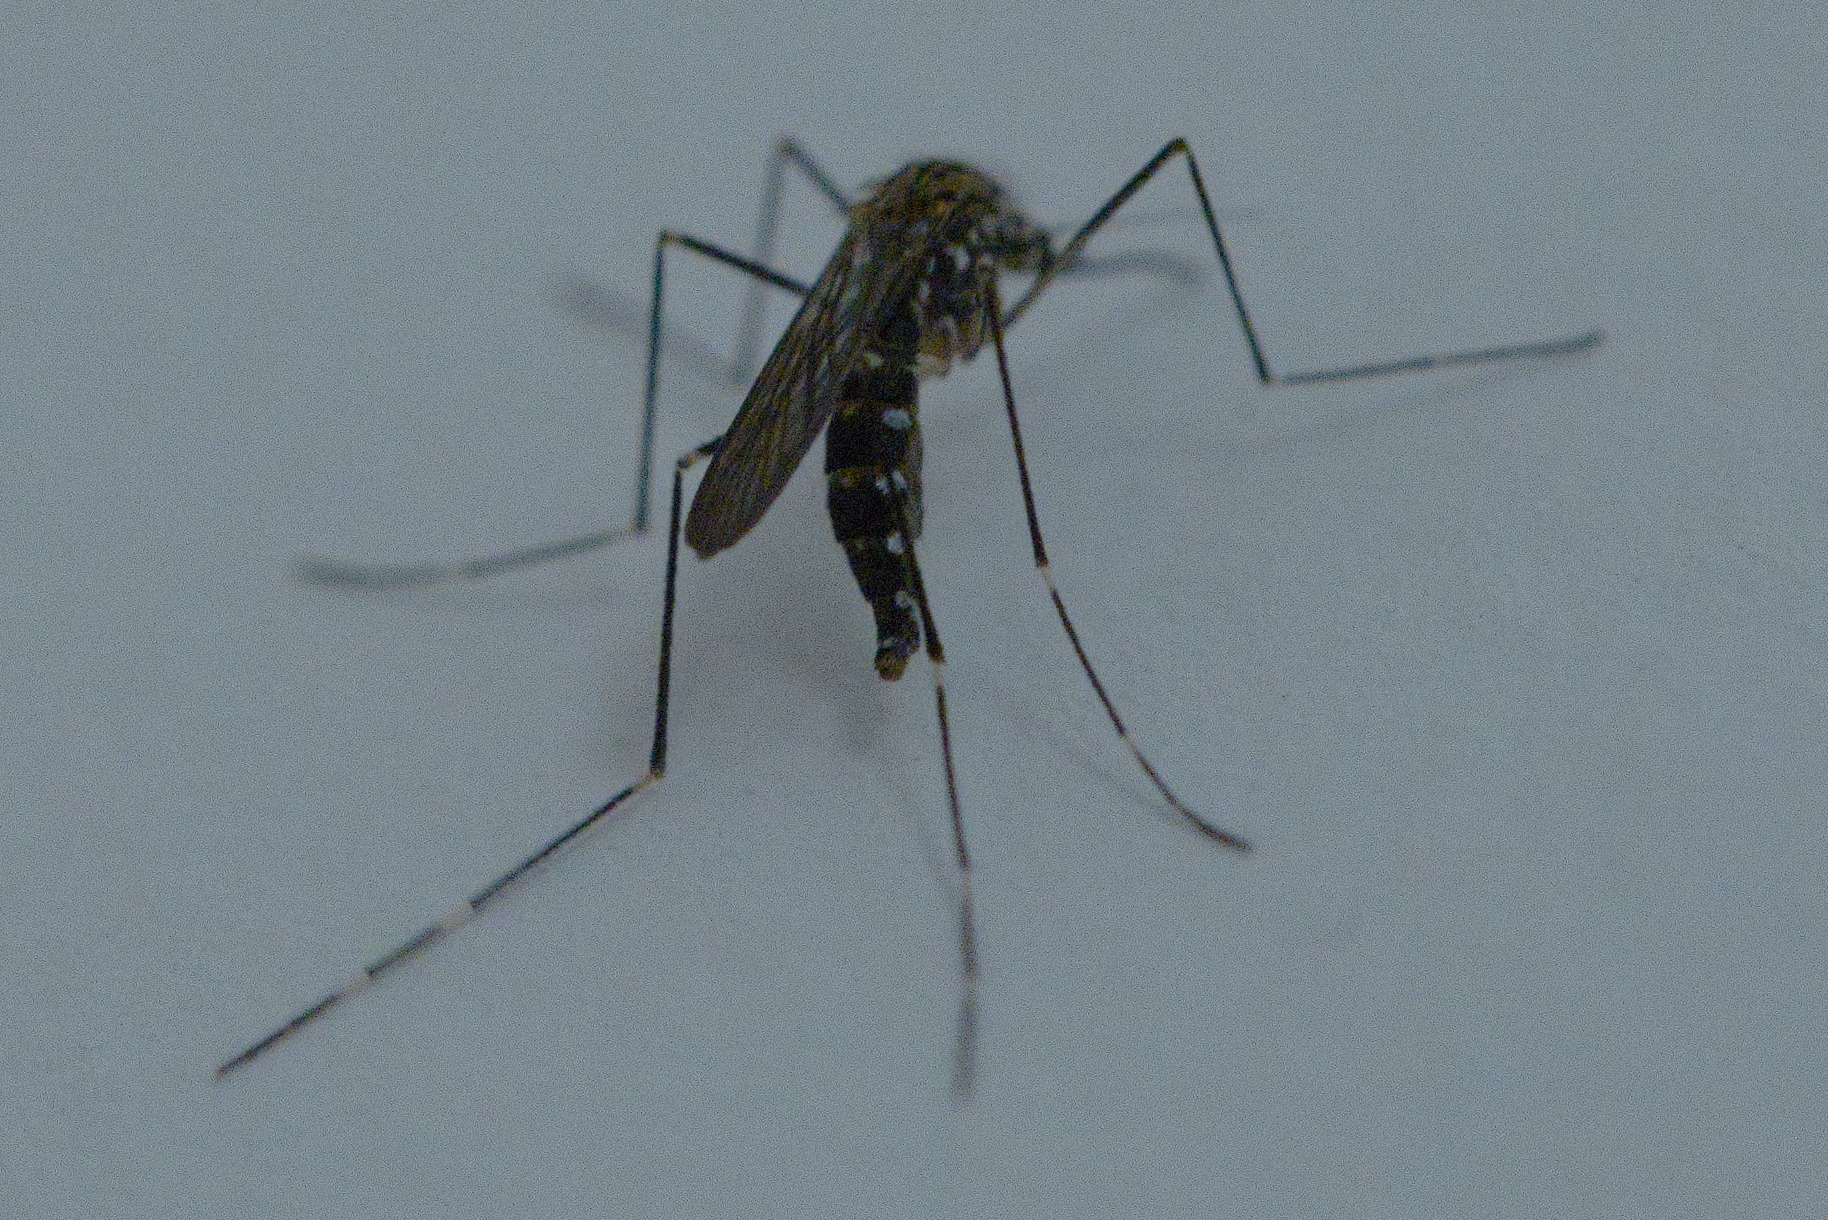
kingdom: Animalia
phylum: Arthropoda
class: Insecta
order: Diptera
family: Culicidae
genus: Aedes
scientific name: Aedes japonicus
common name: Asian bush mosquito
